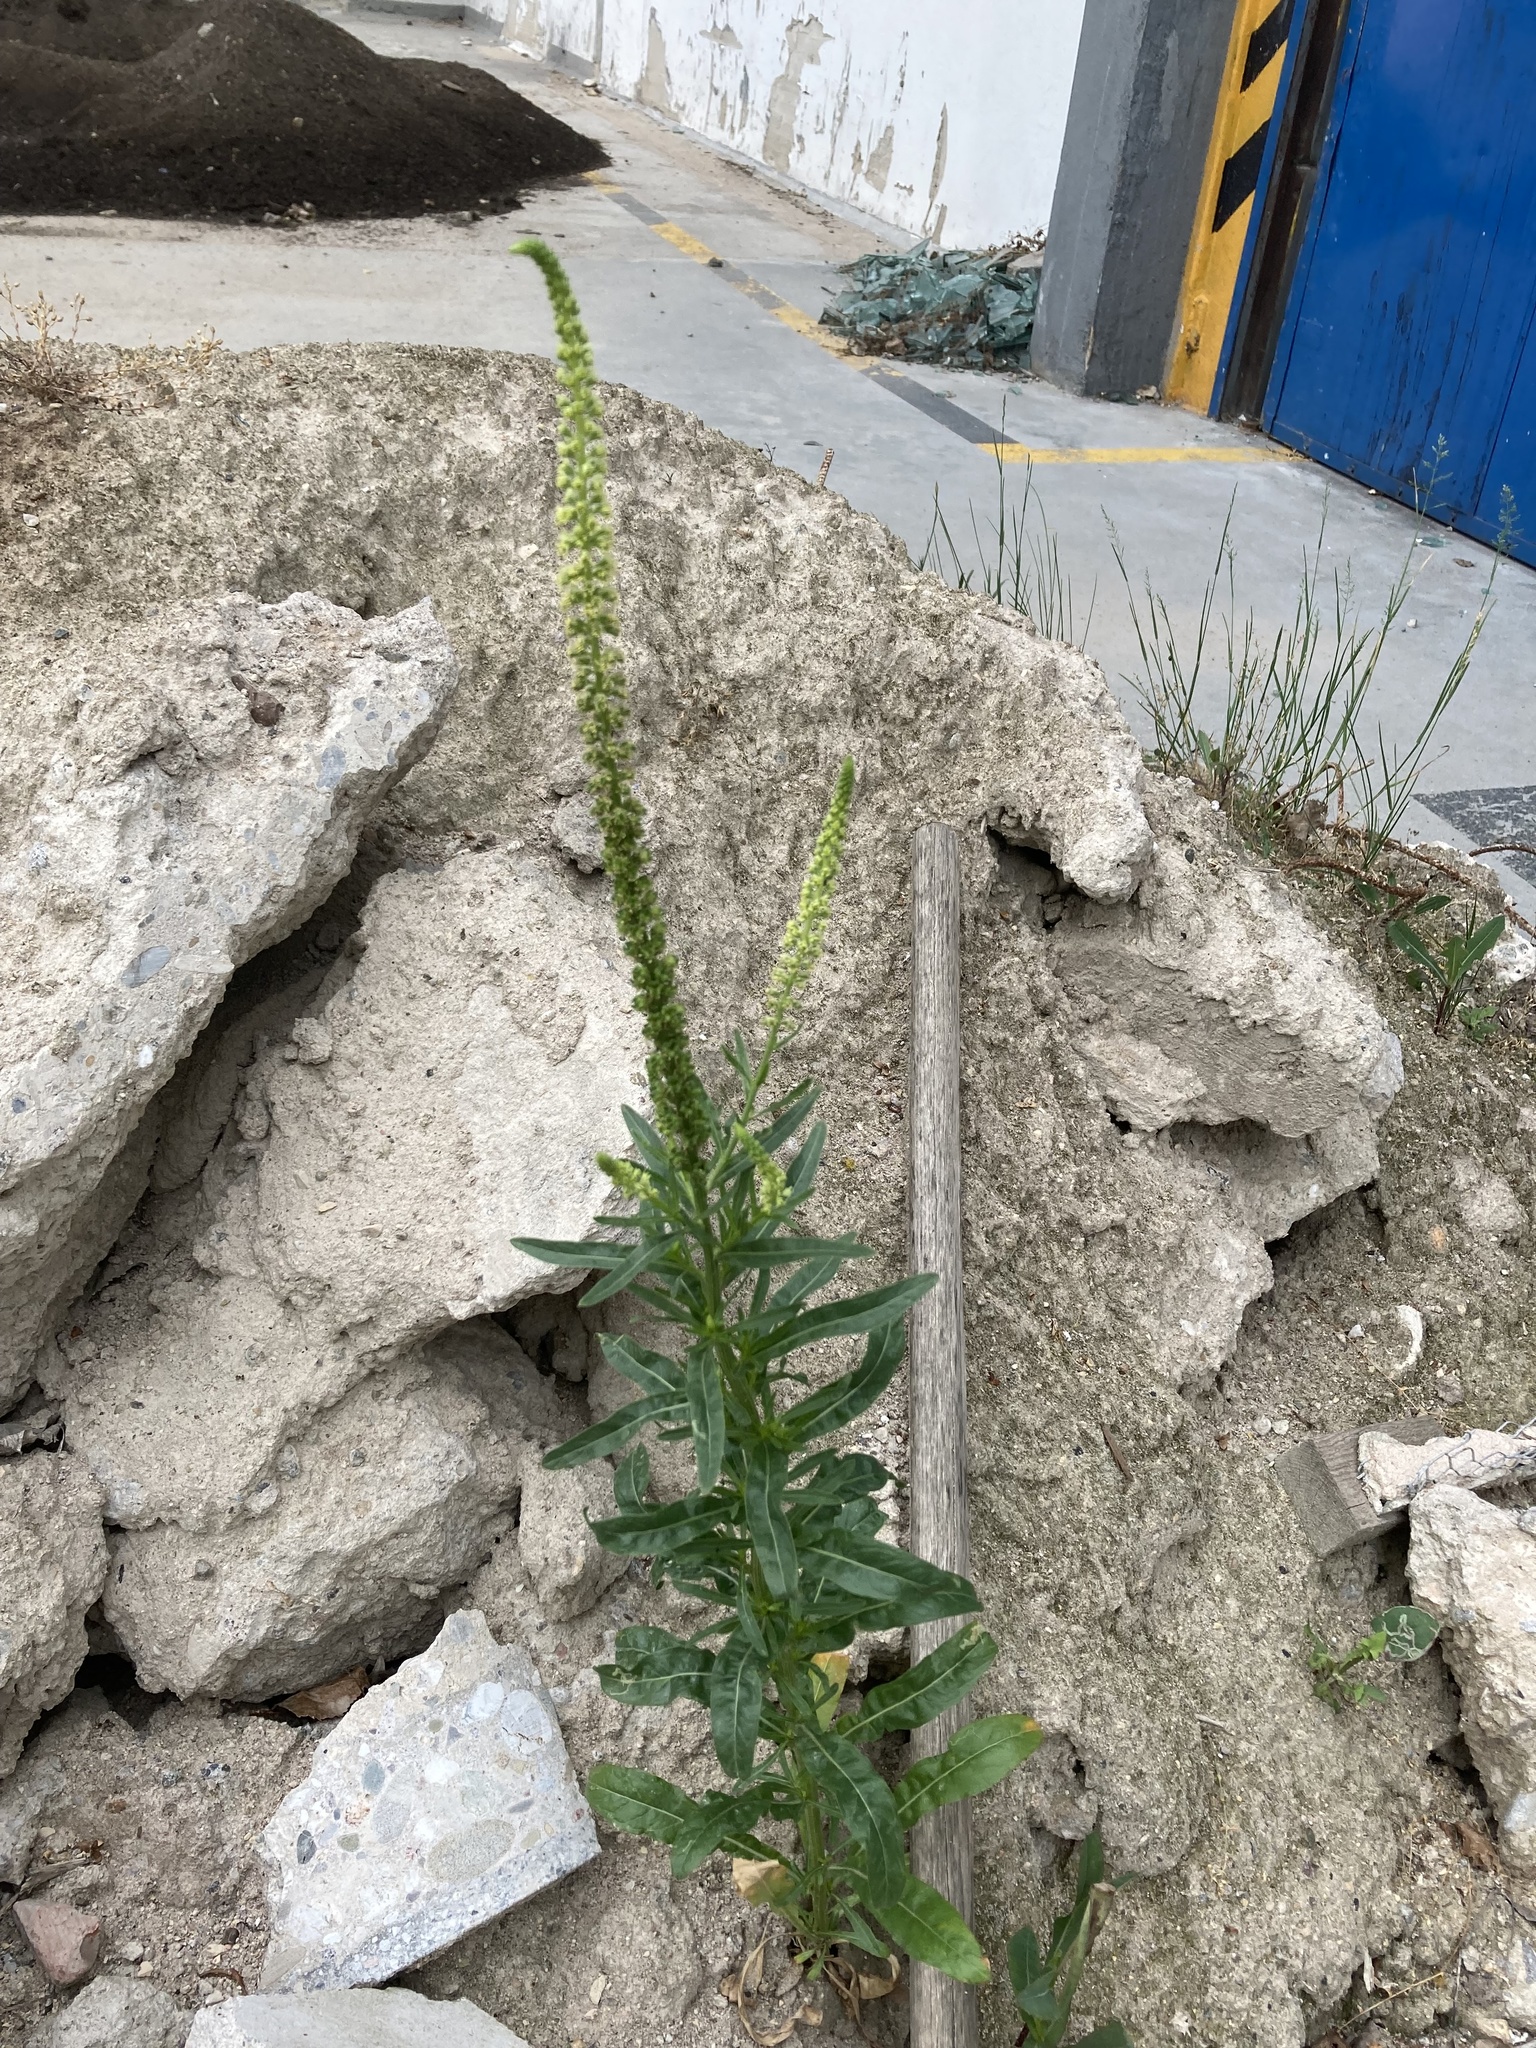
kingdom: Plantae
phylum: Tracheophyta
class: Magnoliopsida
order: Brassicales
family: Resedaceae
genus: Reseda
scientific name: Reseda luteola
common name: Weld
